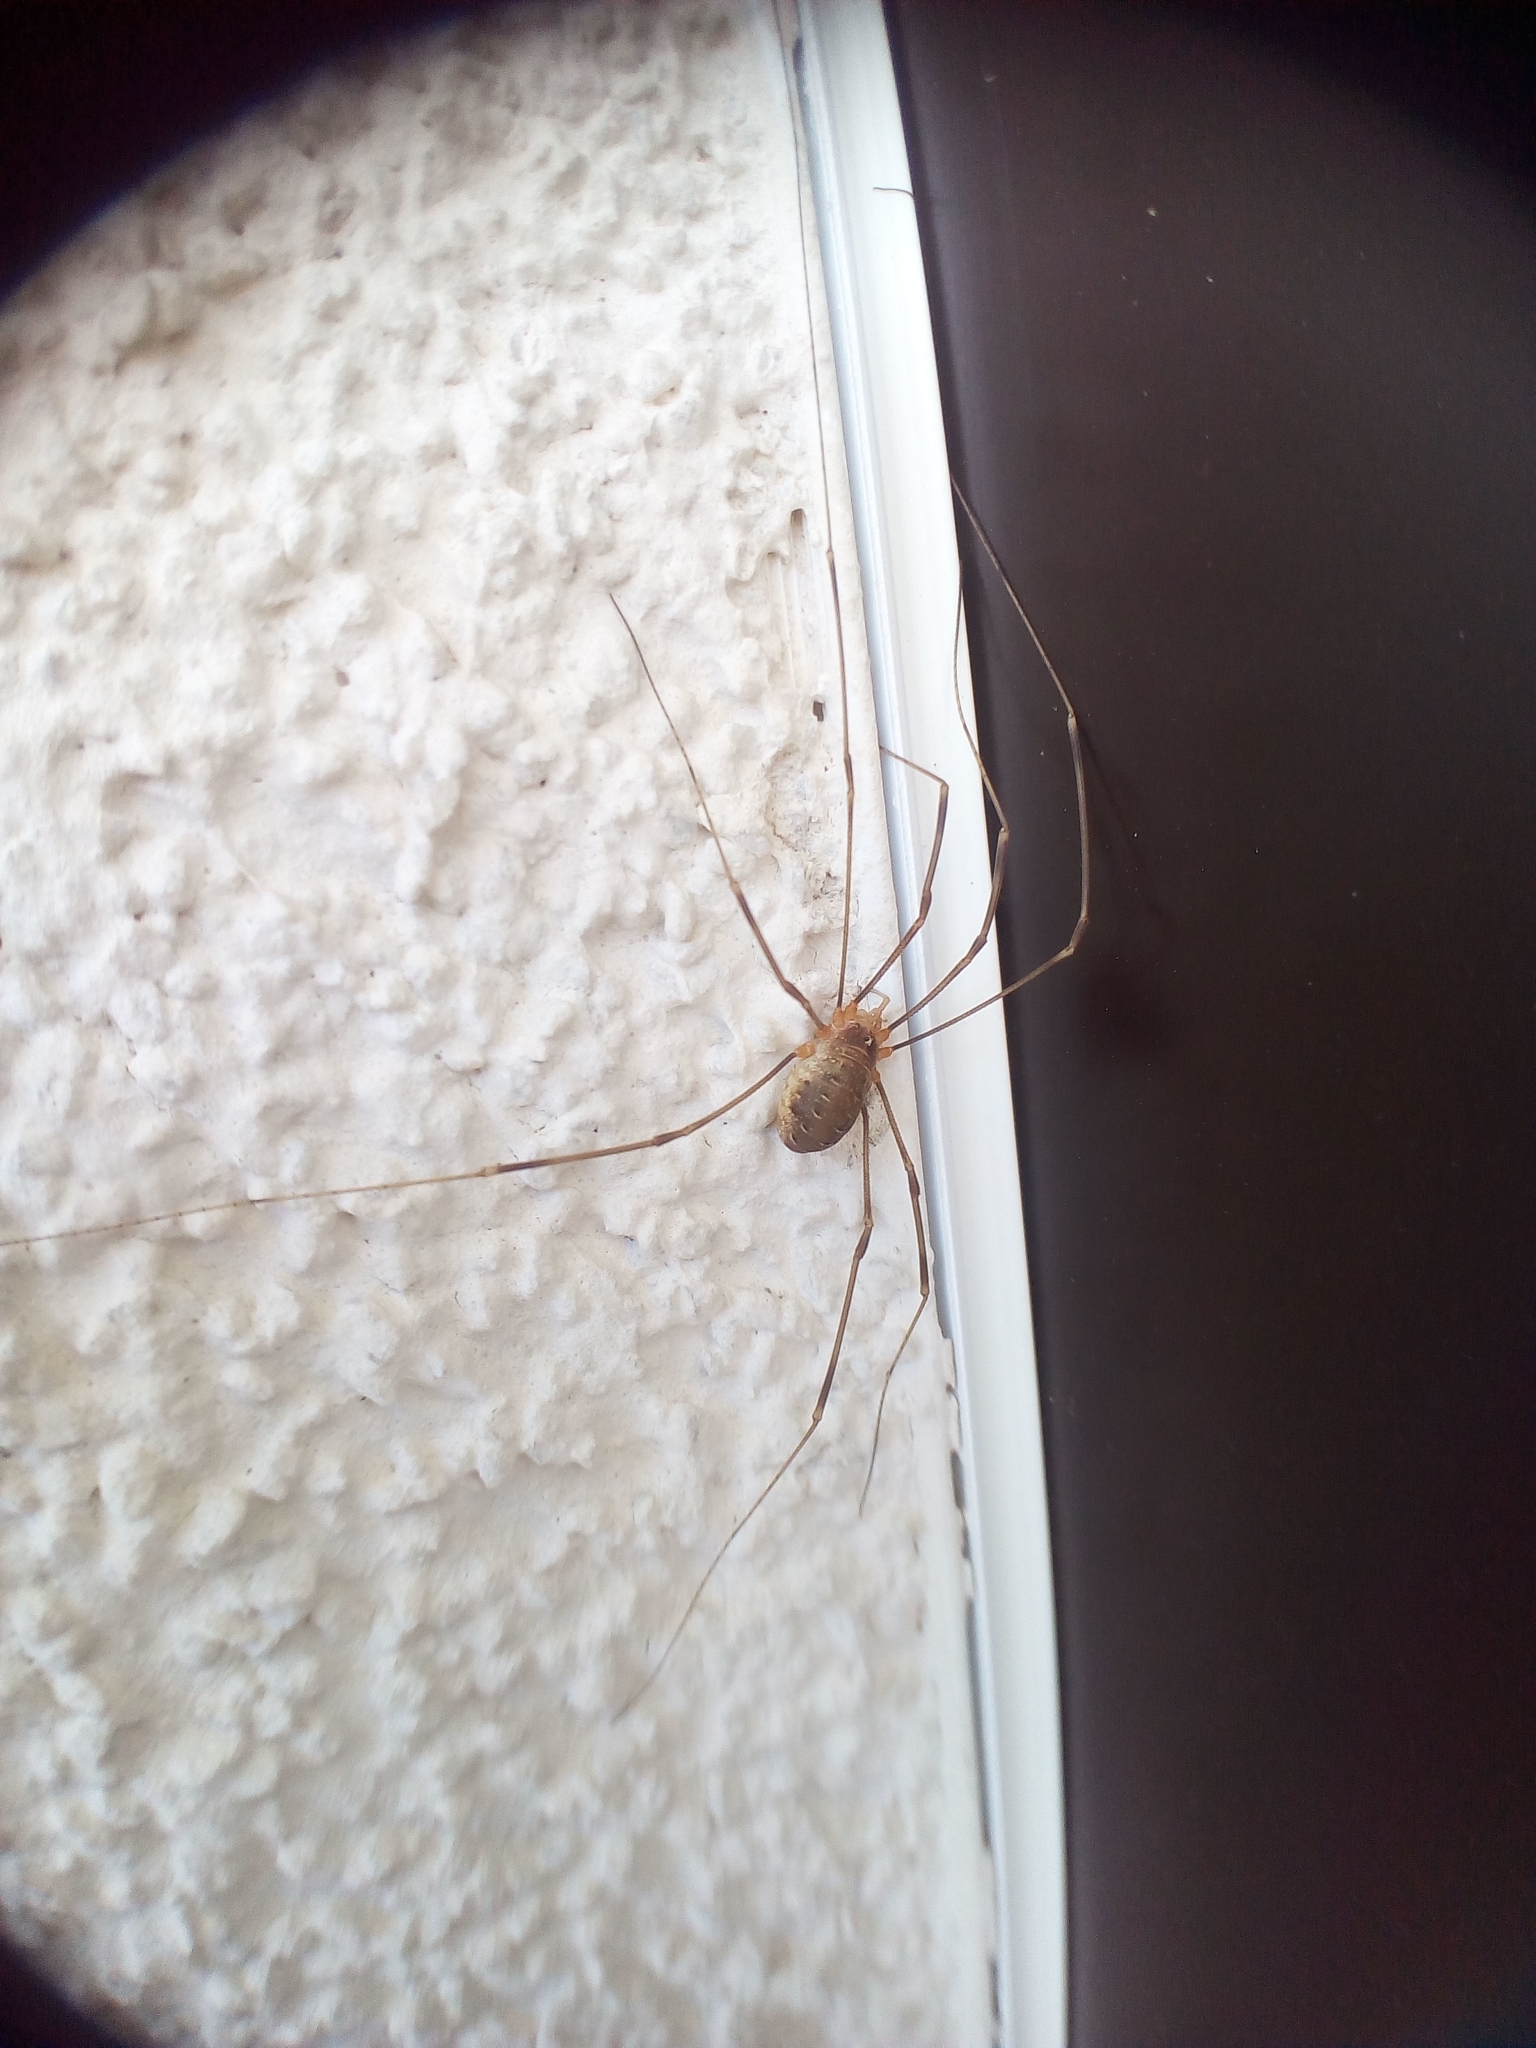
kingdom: Animalia
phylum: Arthropoda
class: Arachnida
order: Opiliones
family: Phalangiidae
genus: Opilio
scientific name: Opilio canestrinii
